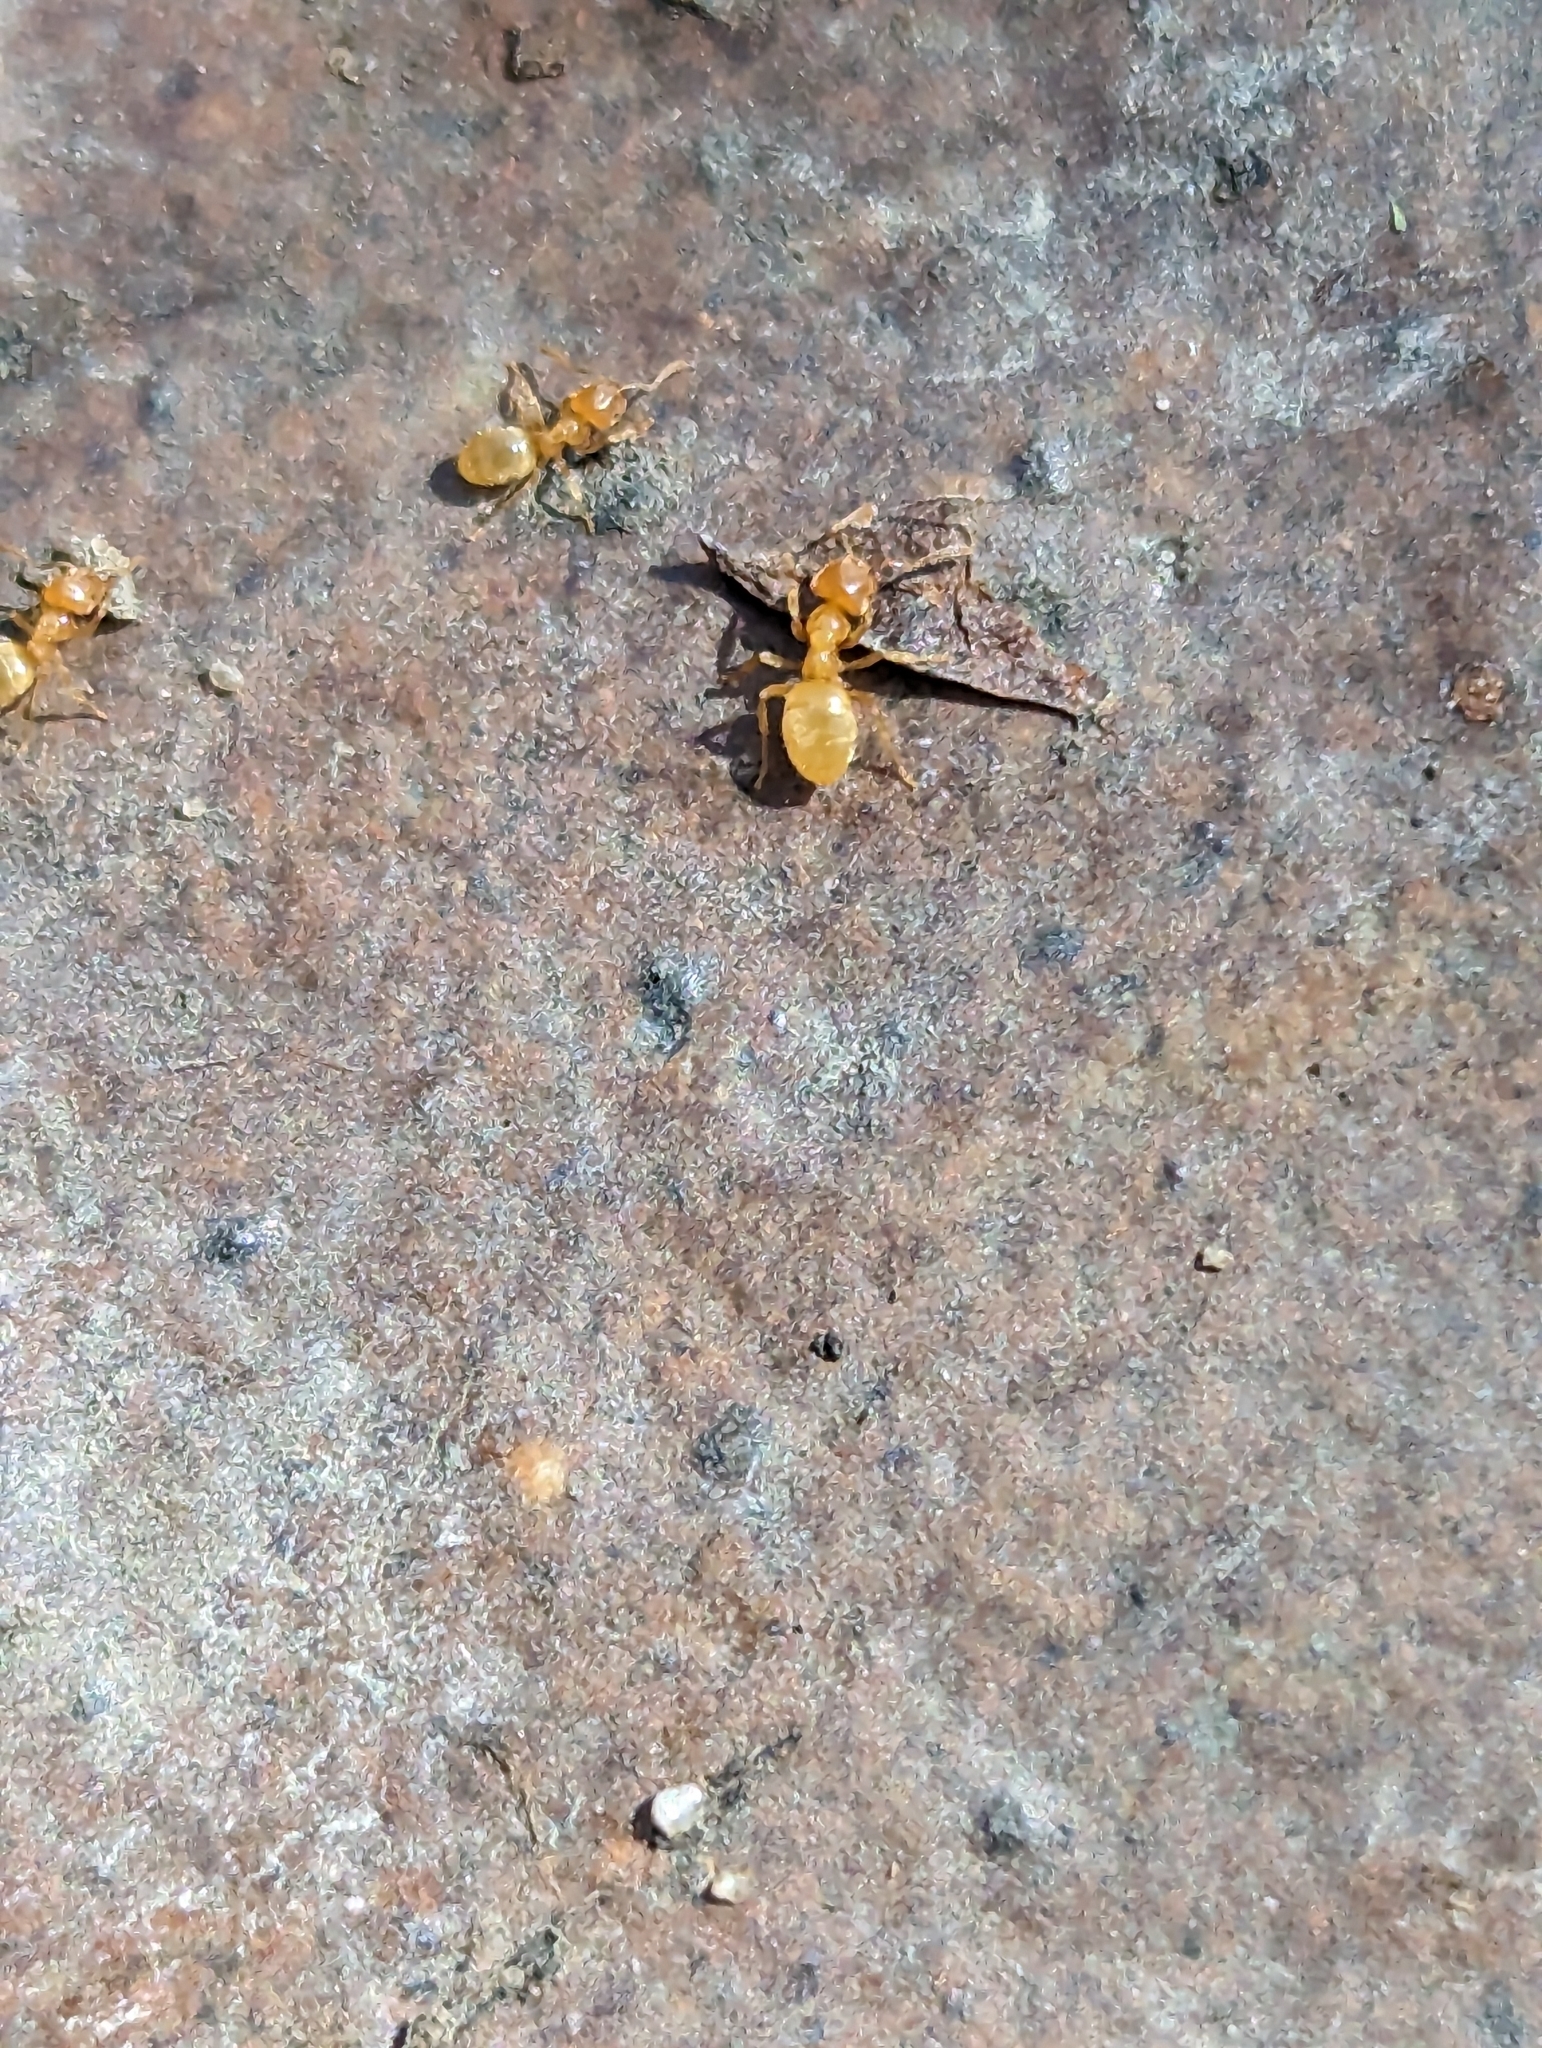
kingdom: Animalia
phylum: Arthropoda
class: Insecta
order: Hymenoptera
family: Formicidae
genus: Lasius
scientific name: Lasius
